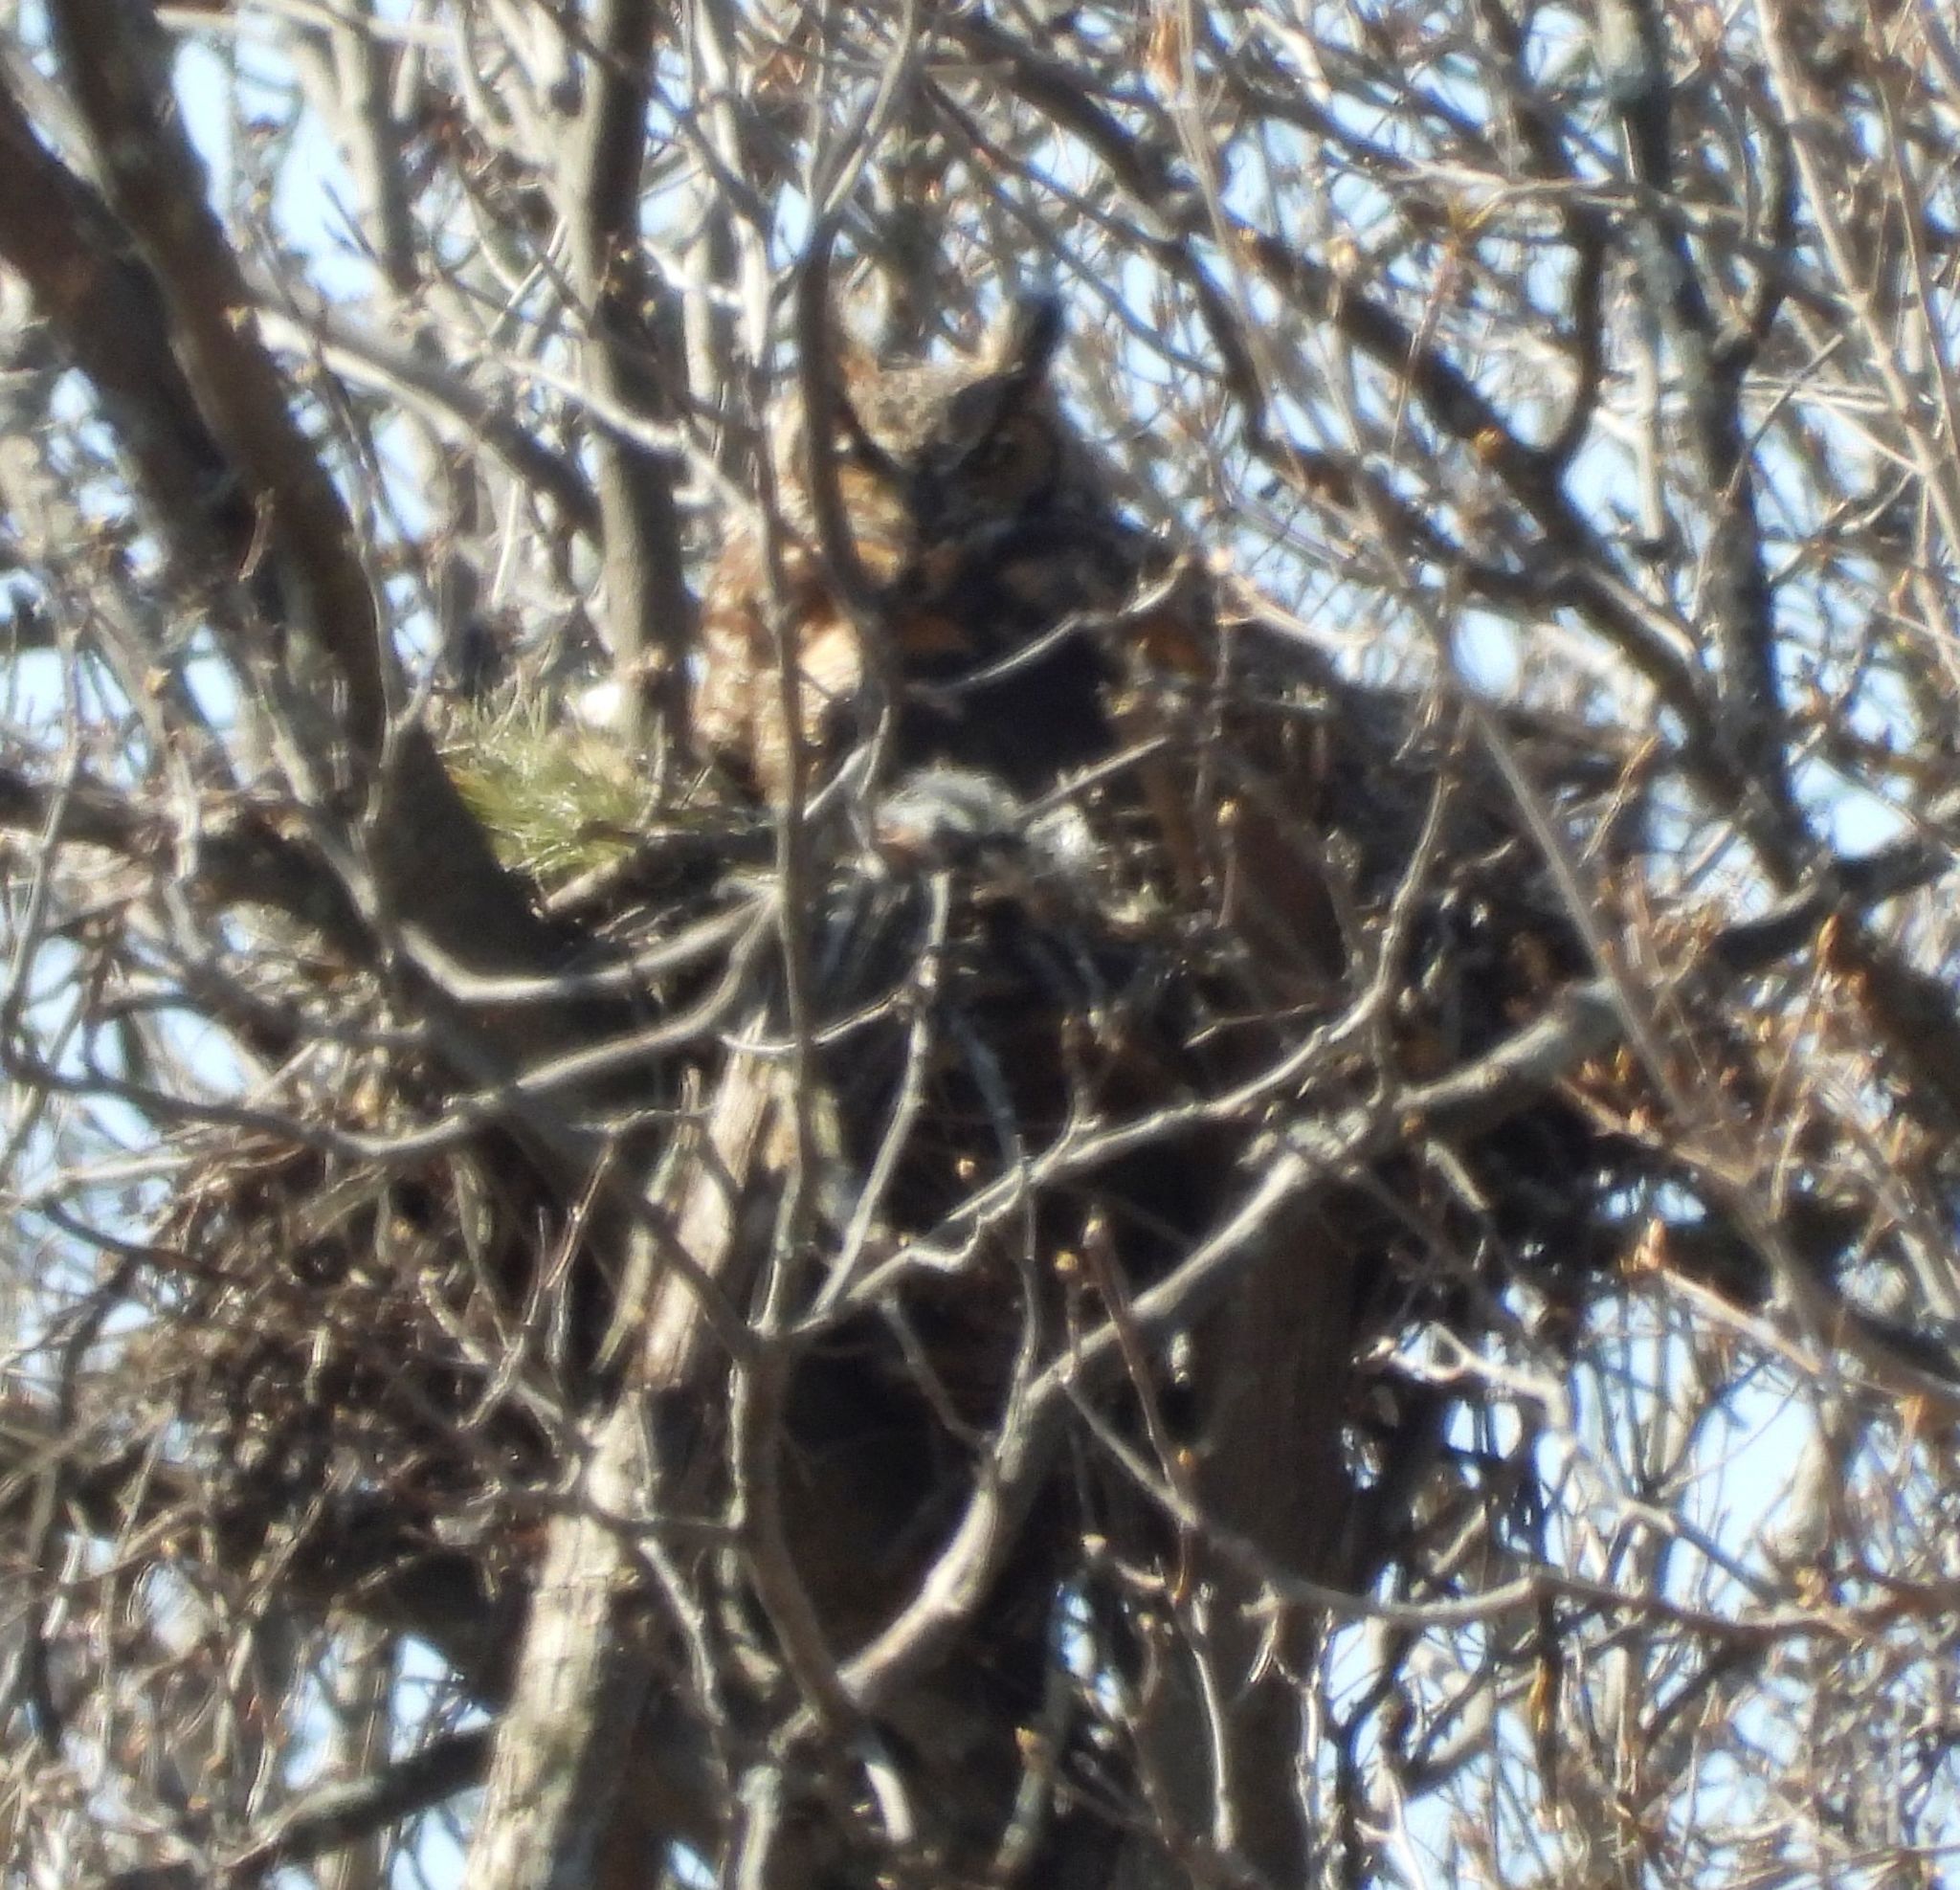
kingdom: Animalia
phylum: Chordata
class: Aves
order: Strigiformes
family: Strigidae
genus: Bubo
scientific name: Bubo virginianus
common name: Great horned owl
